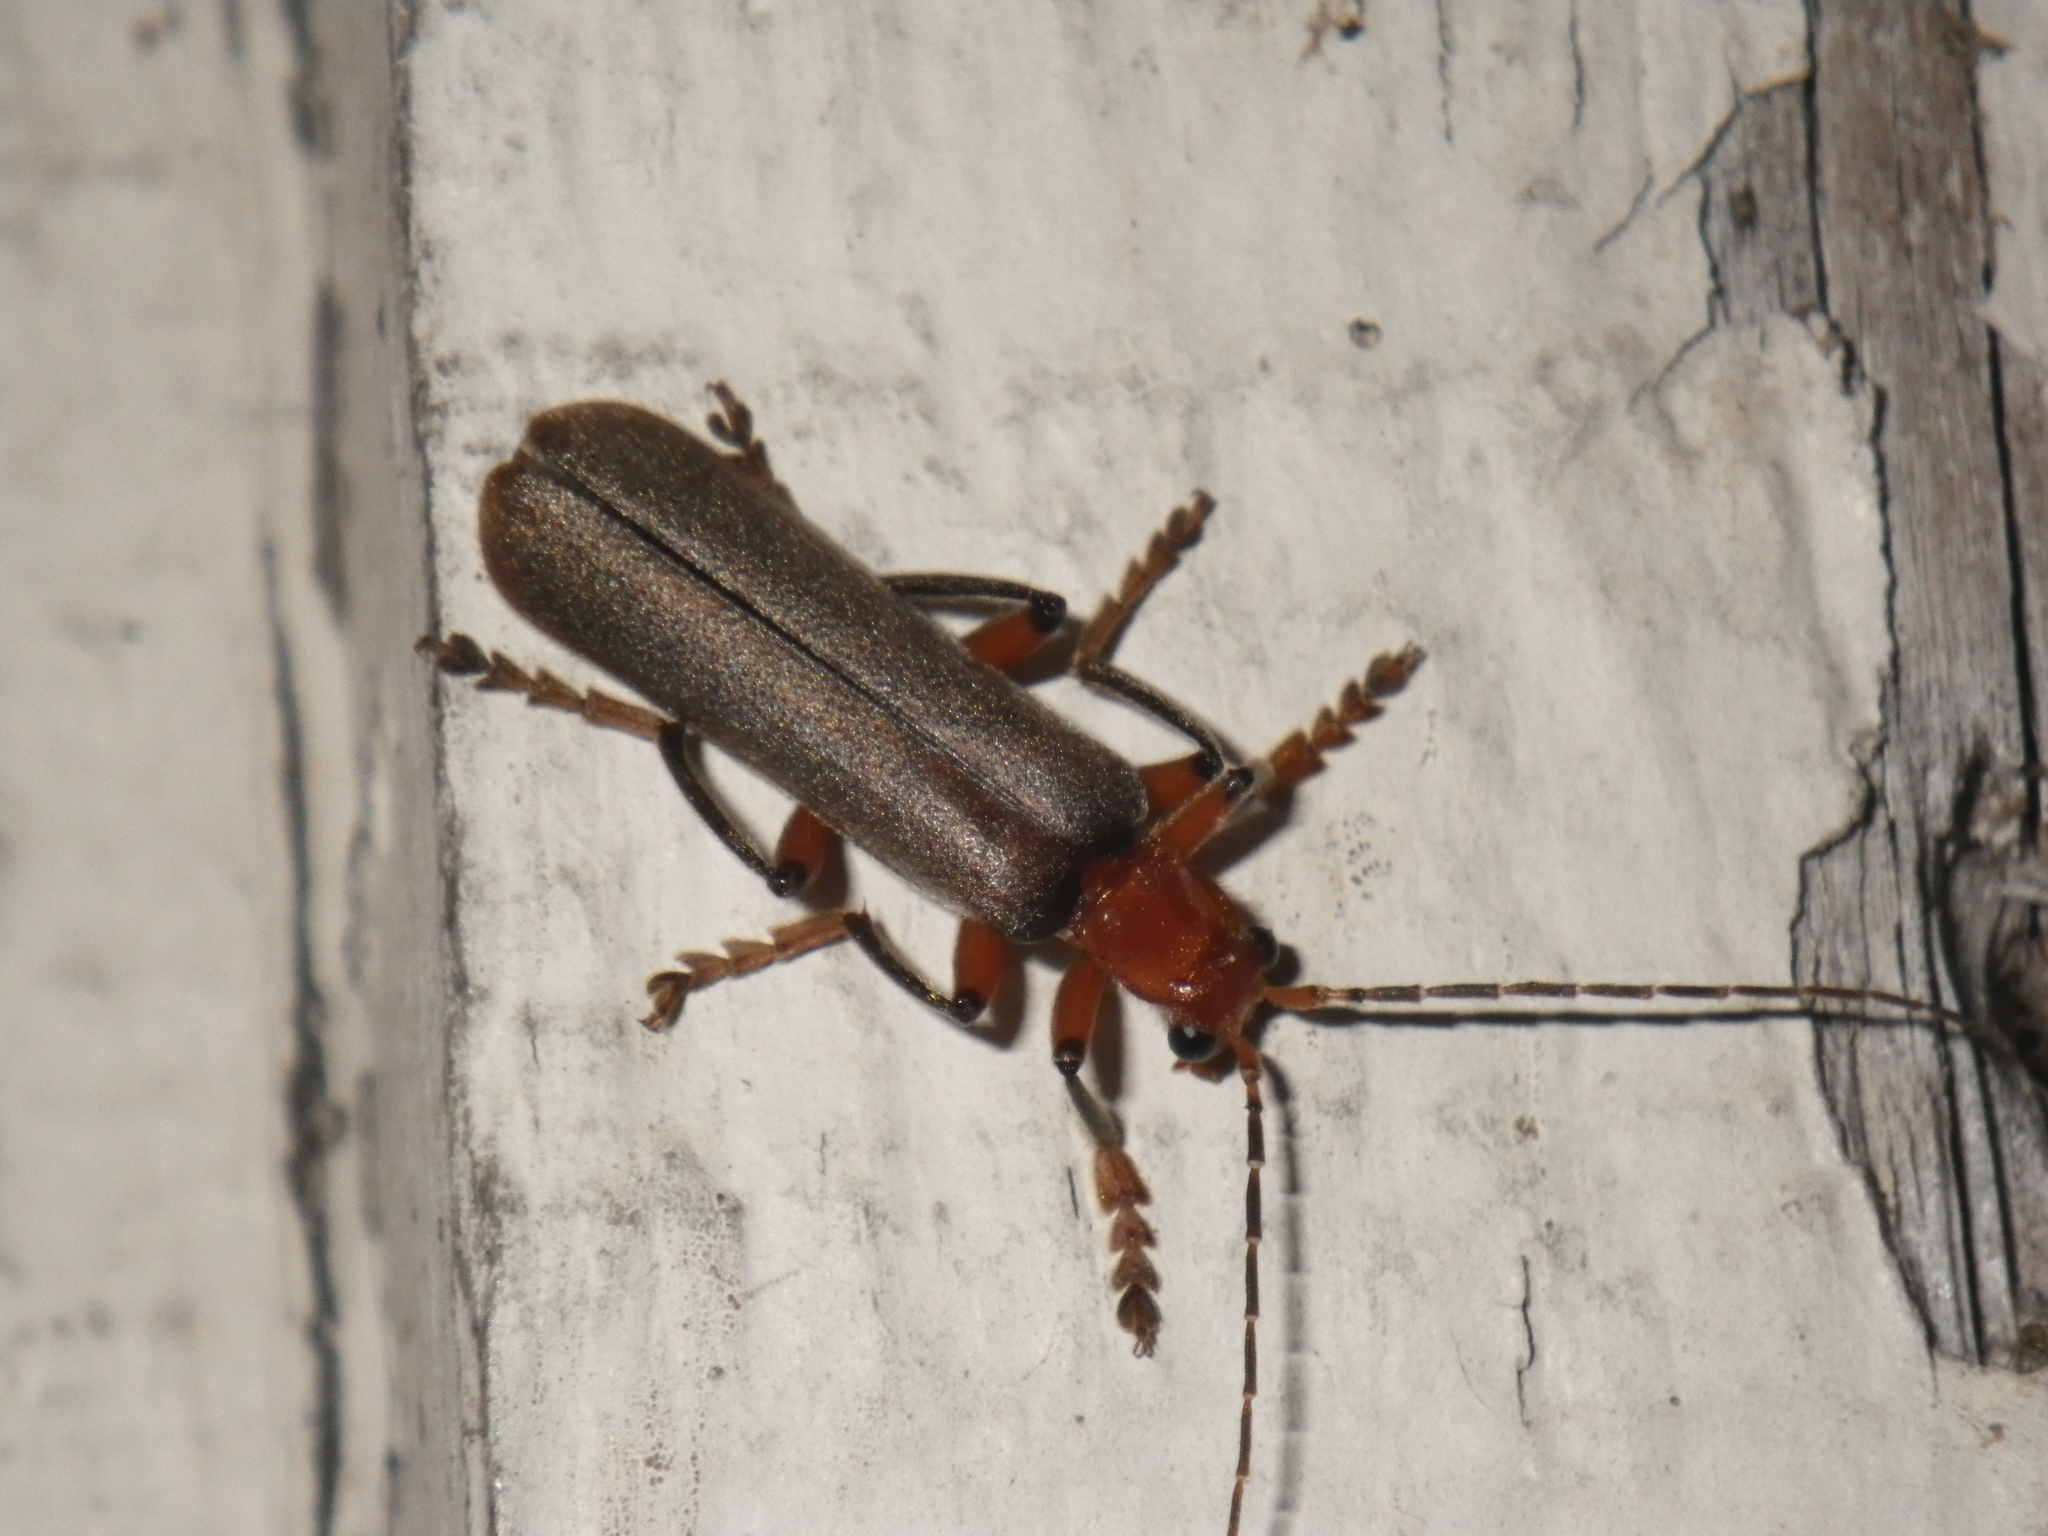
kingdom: Animalia
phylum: Arthropoda
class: Insecta
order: Coleoptera
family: Cantharidae
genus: Pacificanthia
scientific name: Pacificanthia consors
